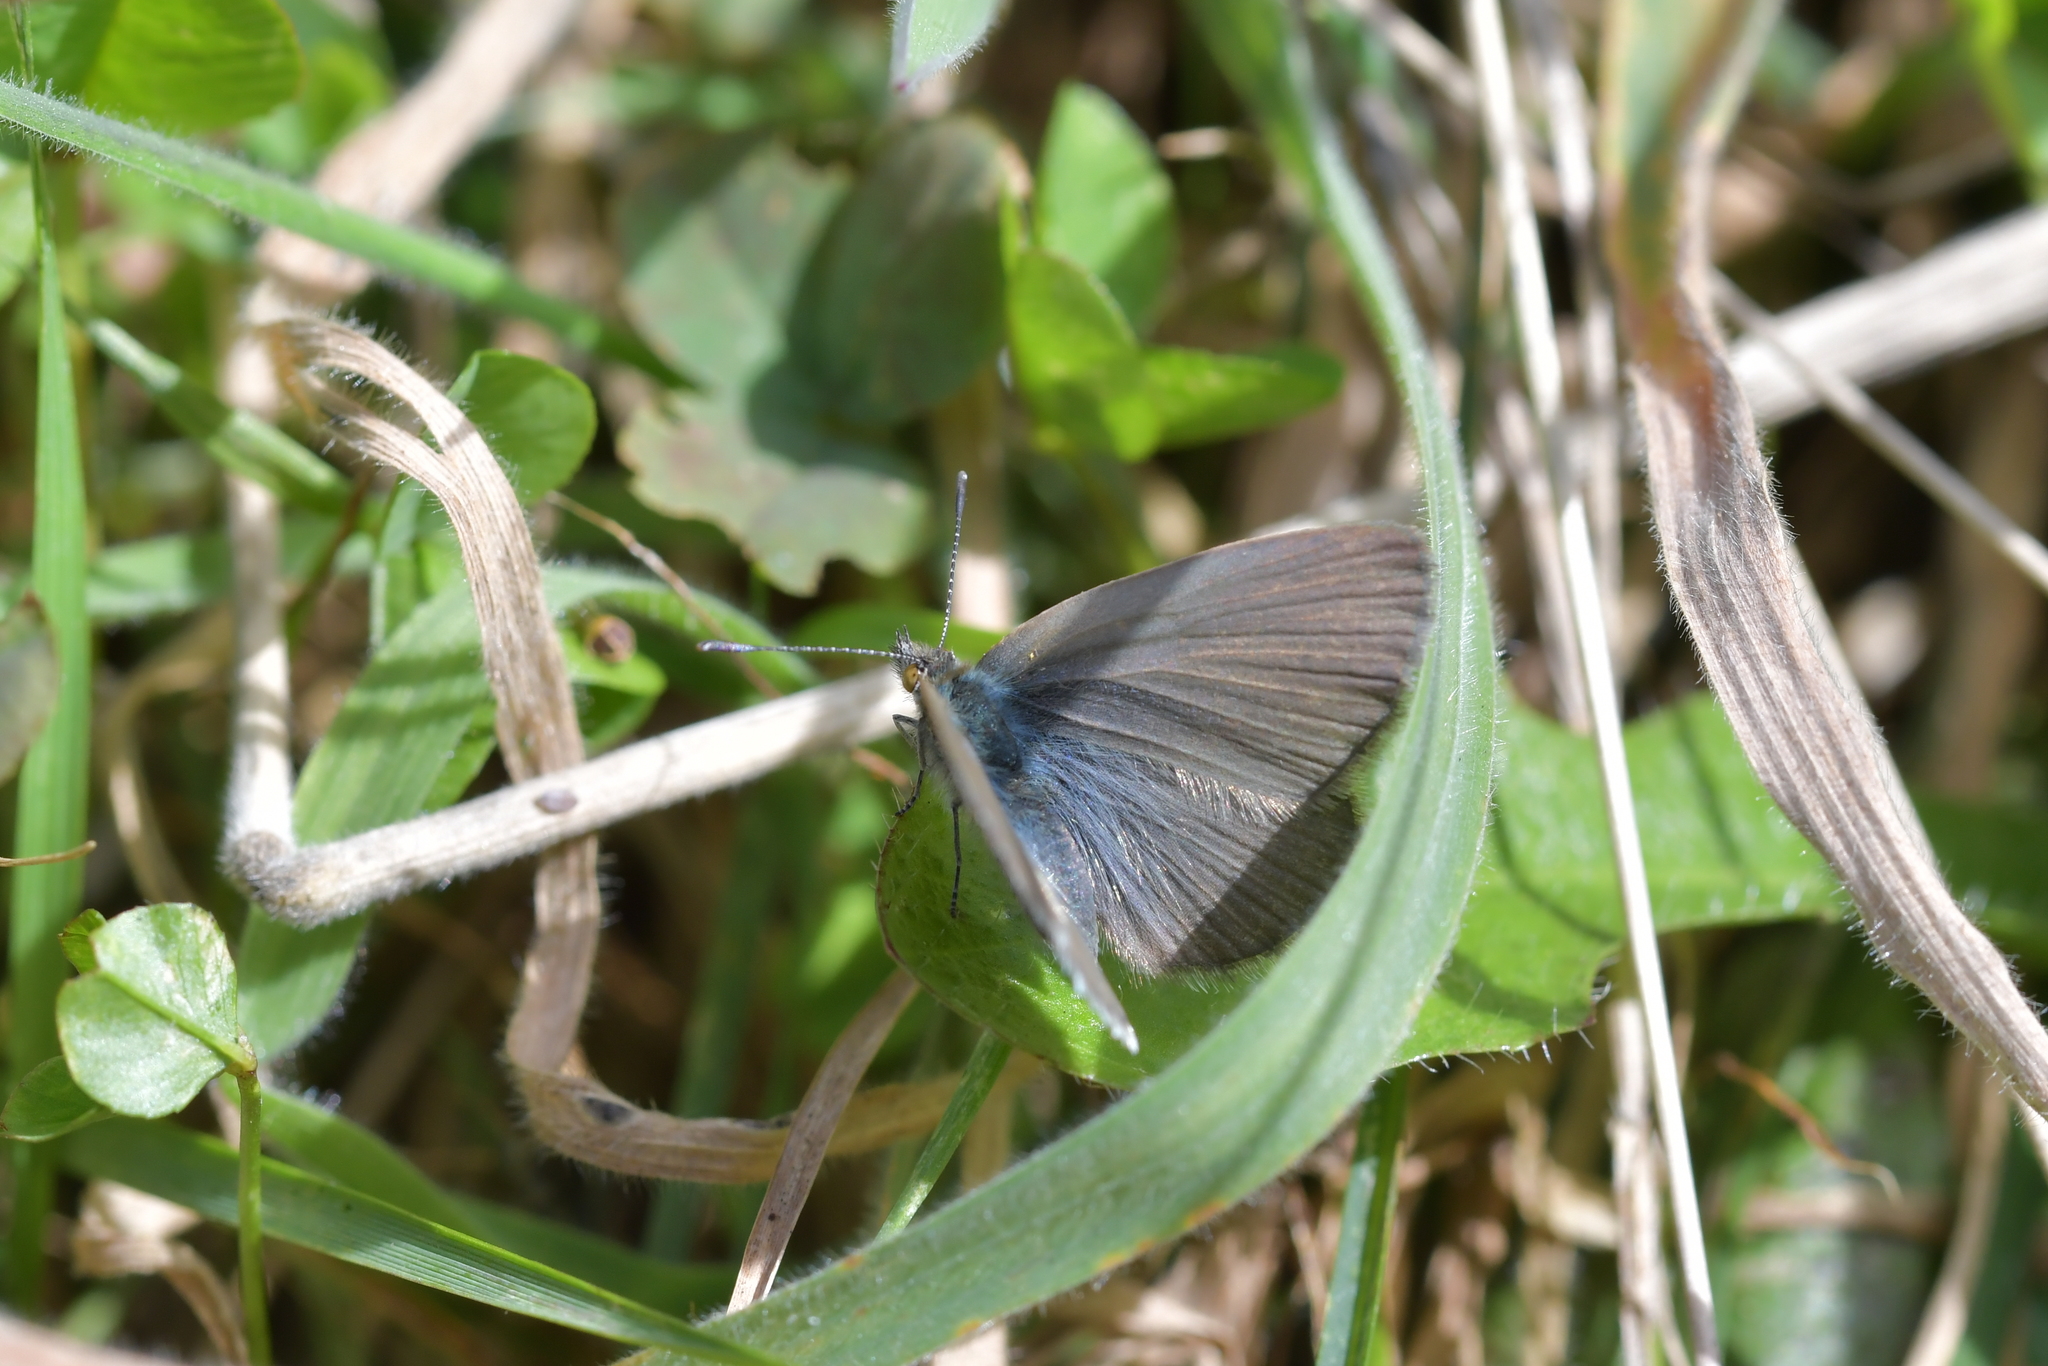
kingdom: Animalia
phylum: Arthropoda
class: Insecta
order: Lepidoptera
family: Lycaenidae
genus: Zizina
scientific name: Zizina labradus
